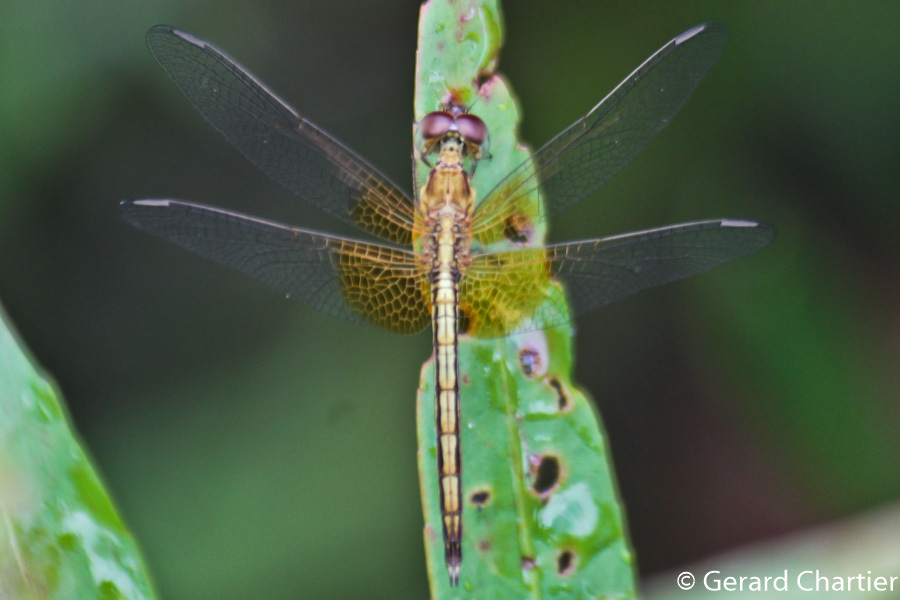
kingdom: Animalia
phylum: Arthropoda
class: Insecta
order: Odonata
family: Libellulidae
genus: Neurothemis
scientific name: Neurothemis intermedia
